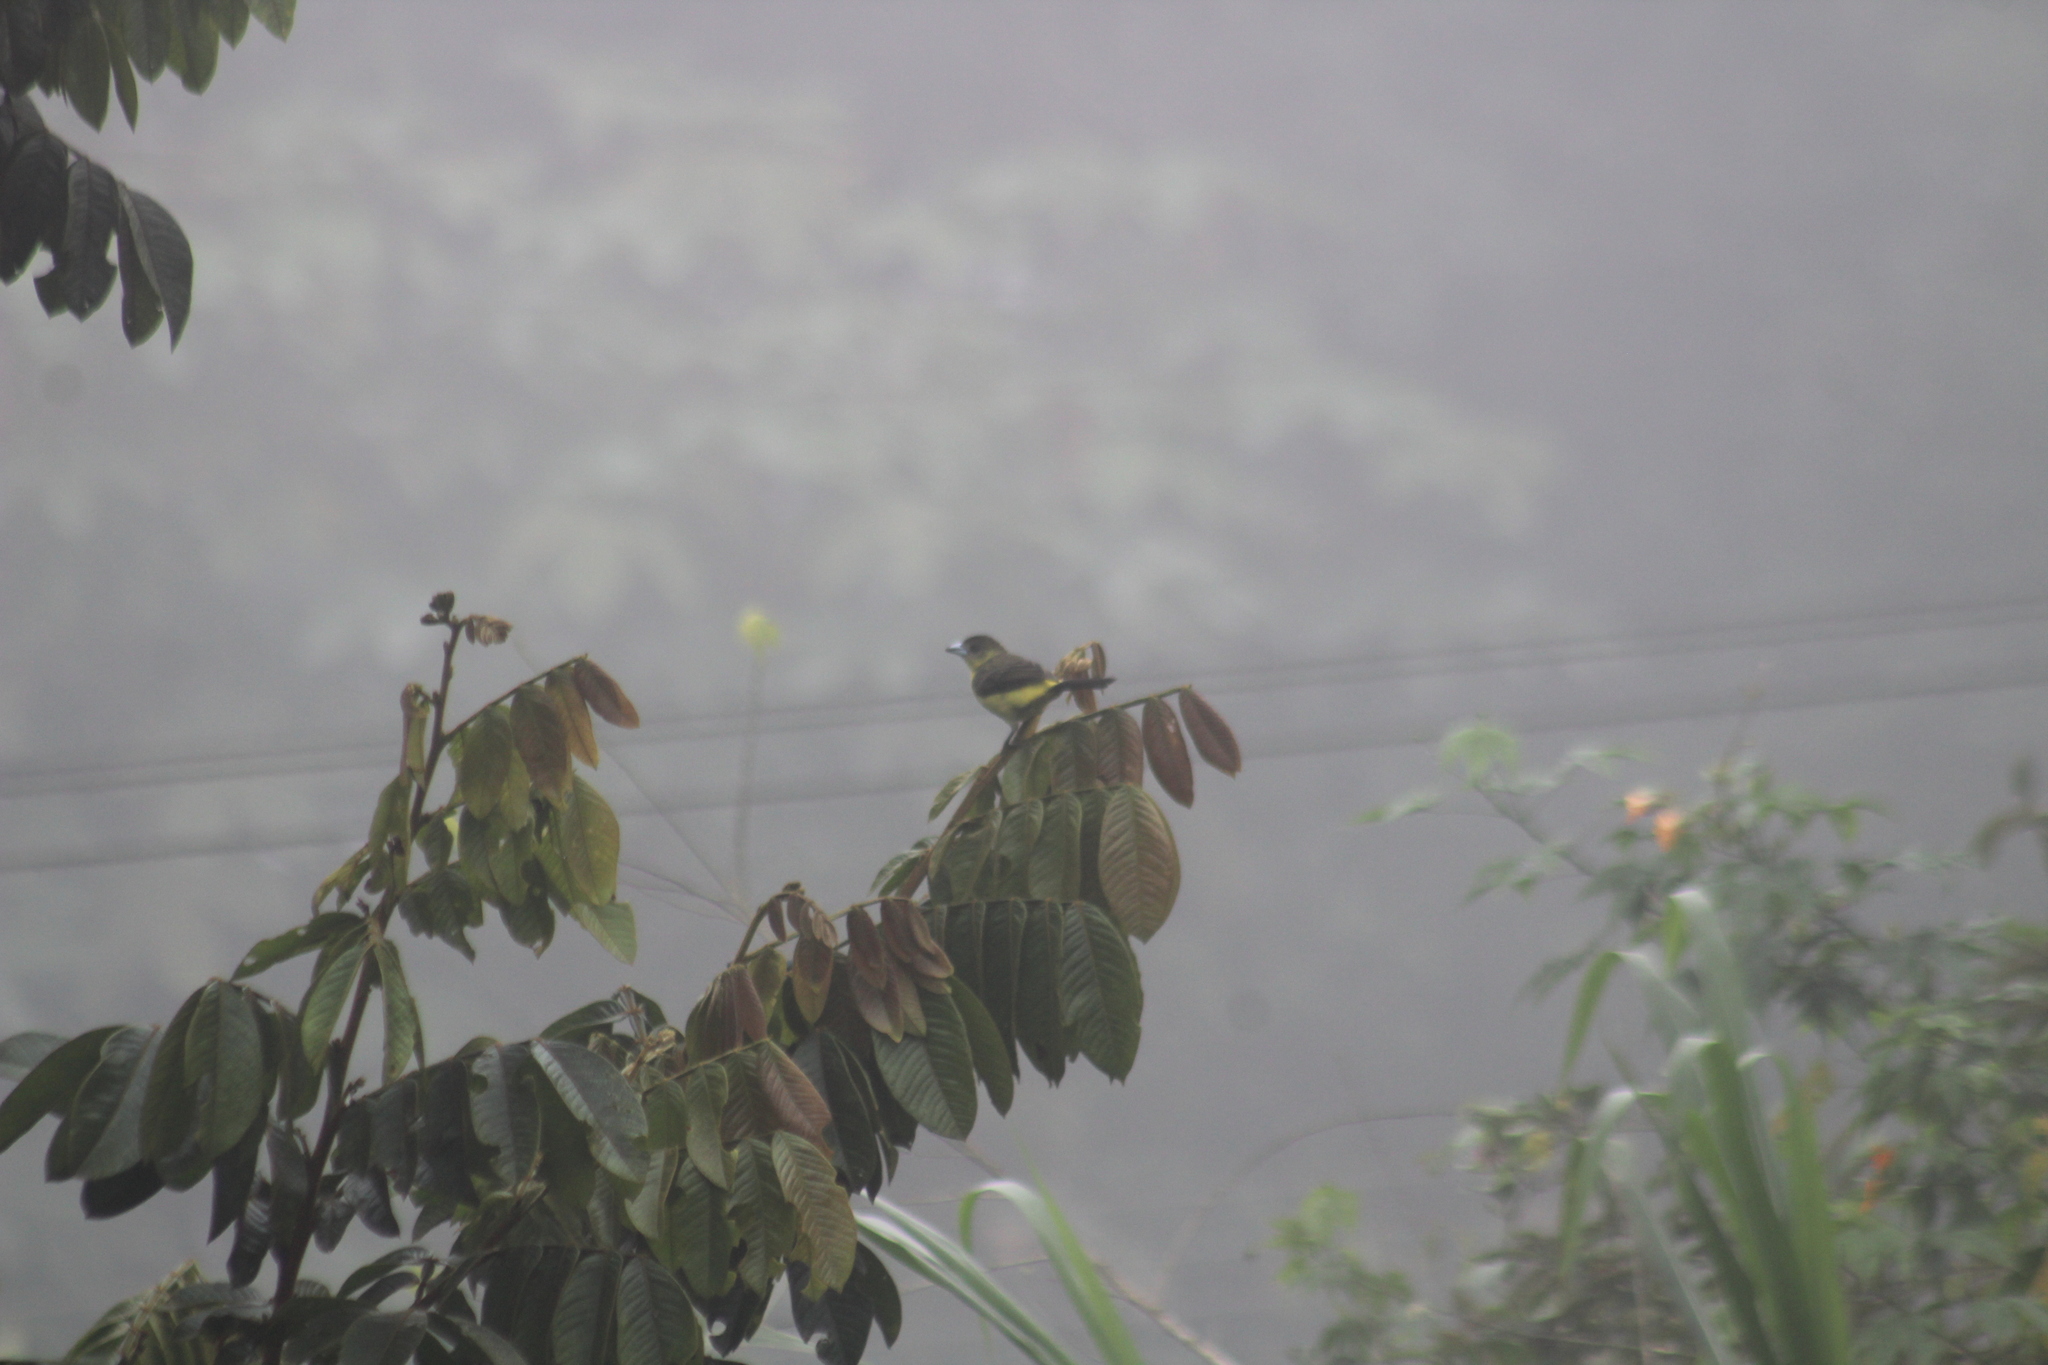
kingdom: Animalia
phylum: Chordata
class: Aves
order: Passeriformes
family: Thraupidae
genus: Ramphocelus
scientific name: Ramphocelus icteronotus
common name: Lemon-rumped tanager
